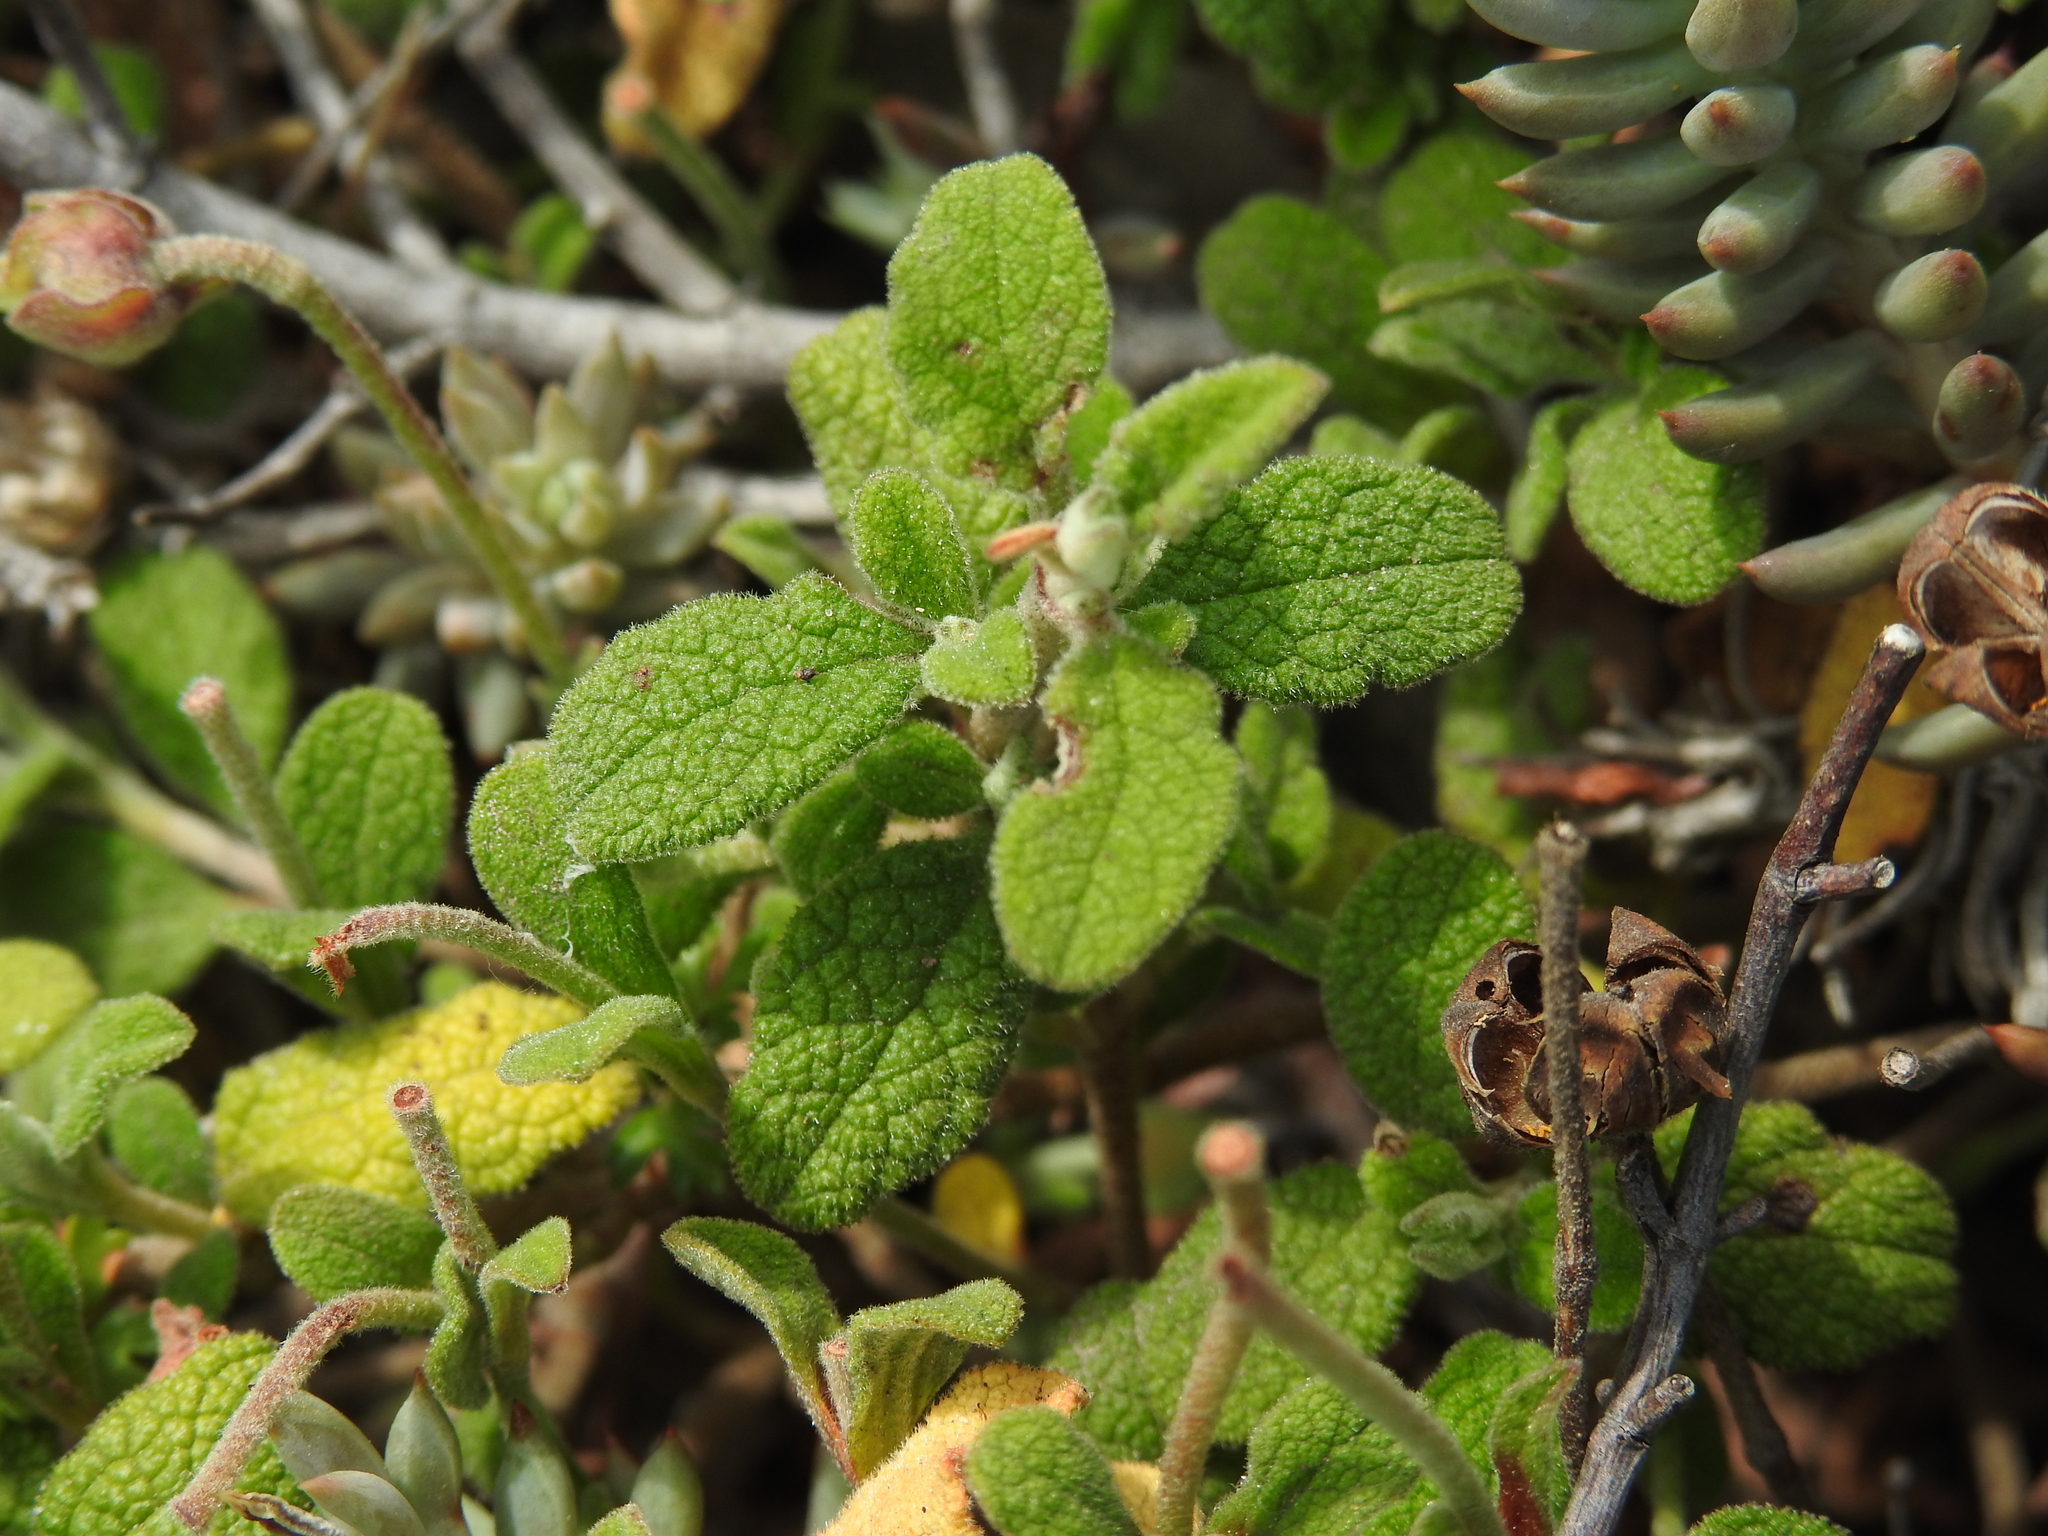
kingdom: Plantae
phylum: Tracheophyta
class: Magnoliopsida
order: Malvales
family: Cistaceae
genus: Cistus
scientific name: Cistus salviifolius
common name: Salvia cistus
